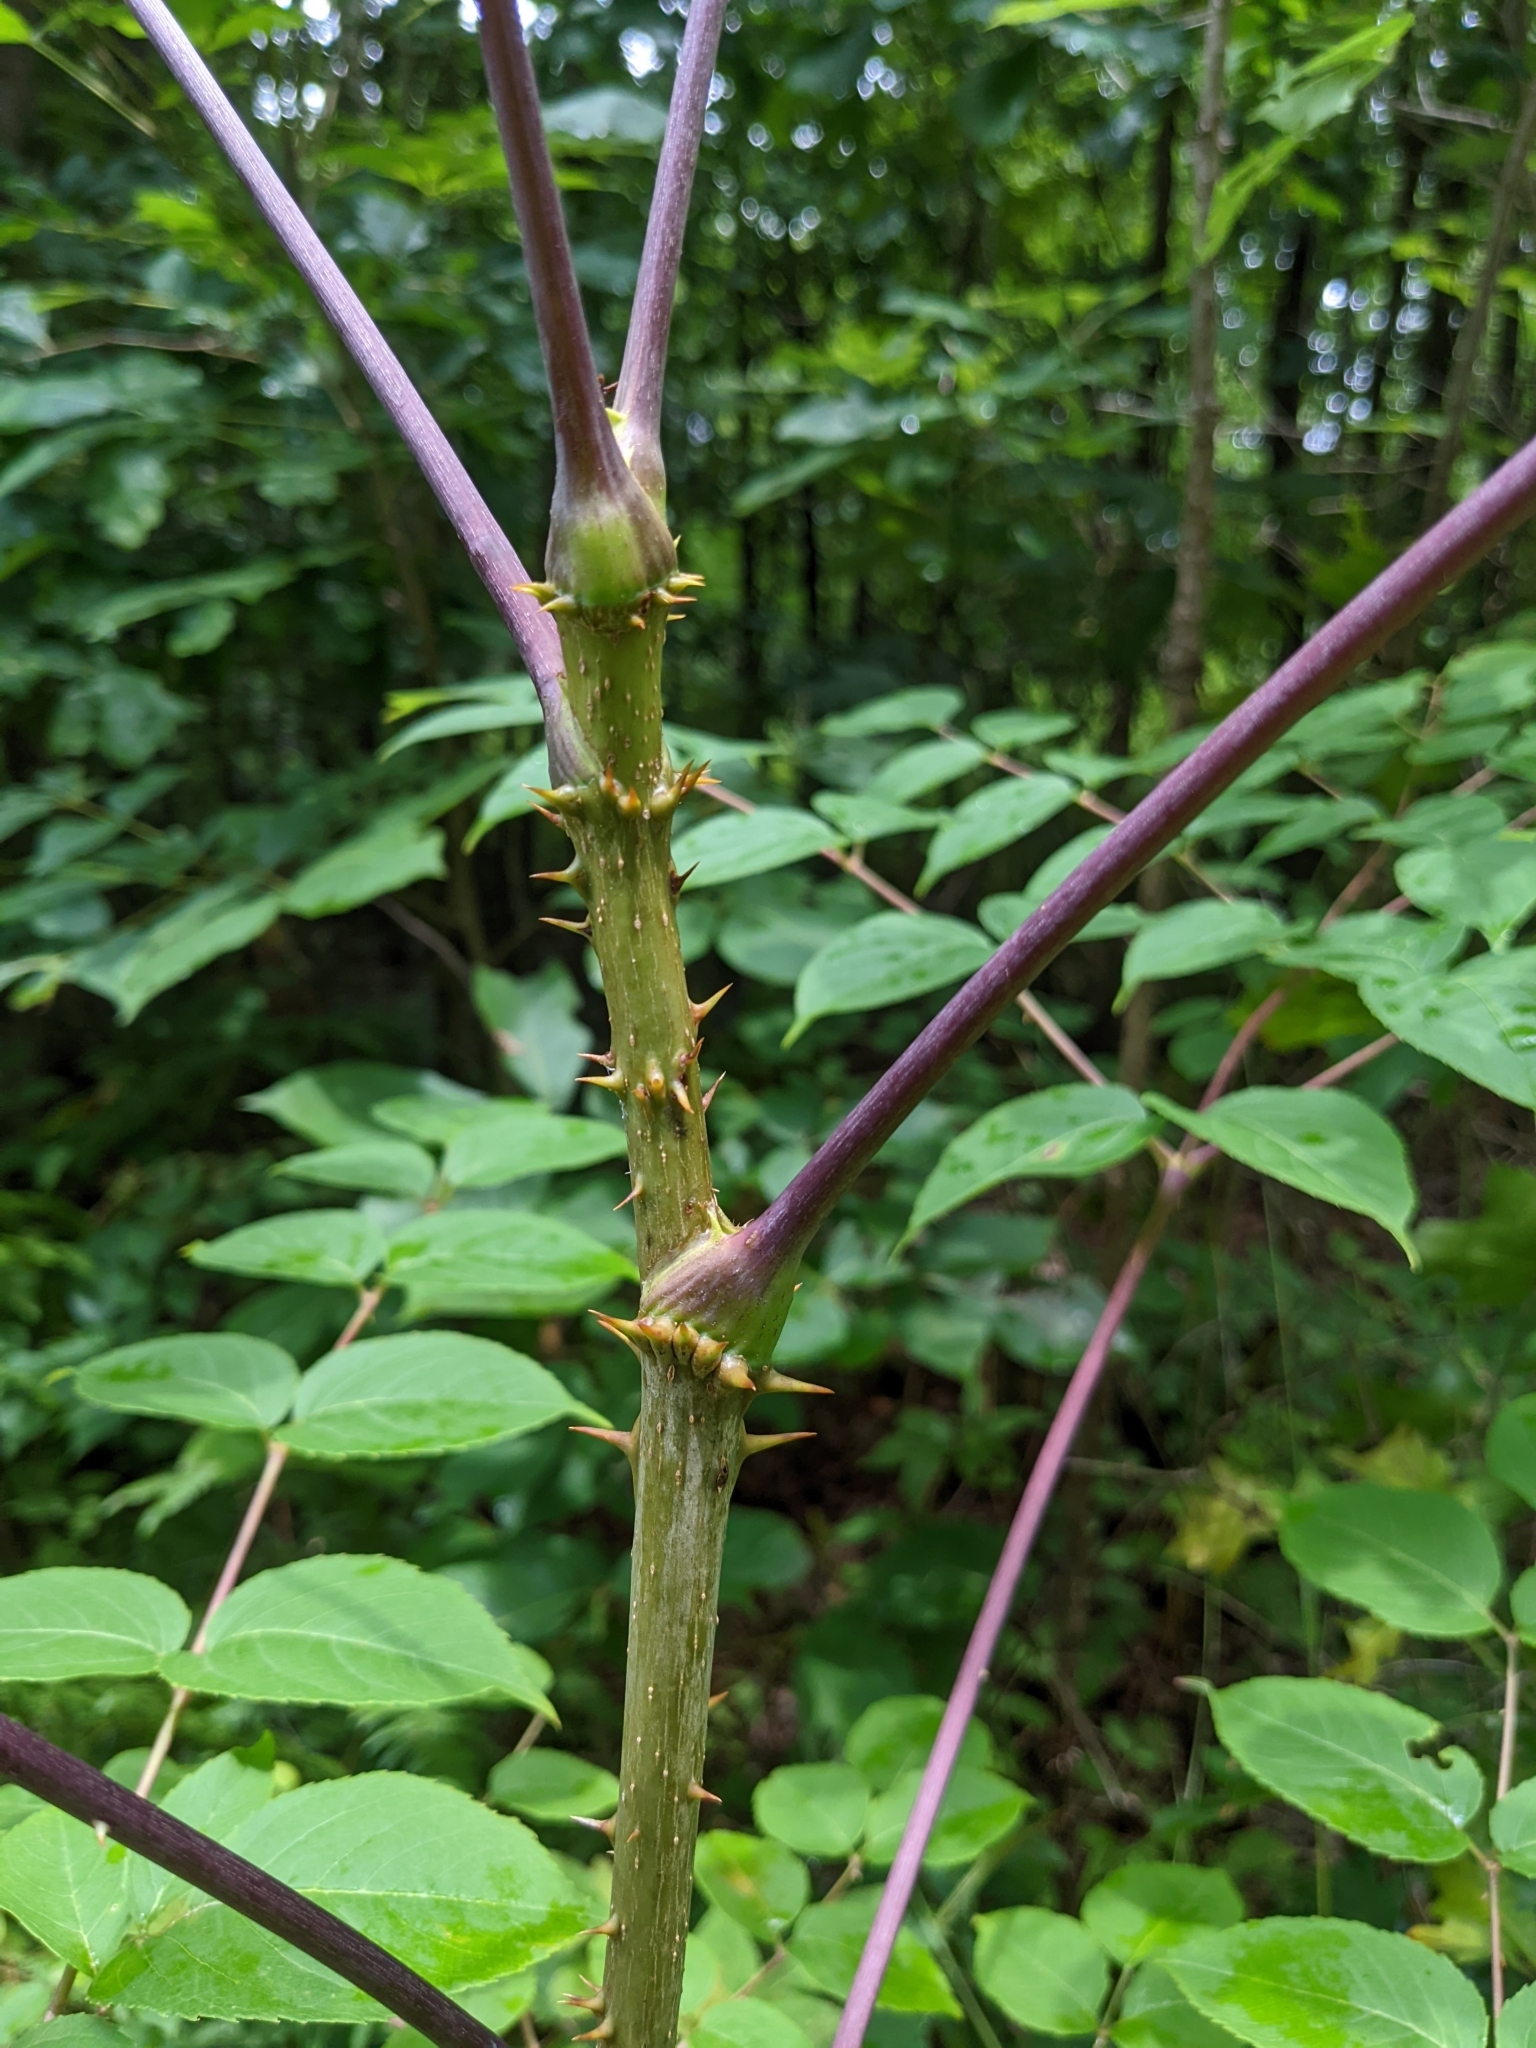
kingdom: Plantae
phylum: Tracheophyta
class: Magnoliopsida
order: Apiales
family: Araliaceae
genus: Aralia
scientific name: Aralia spinosa
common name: Hercules'-club
